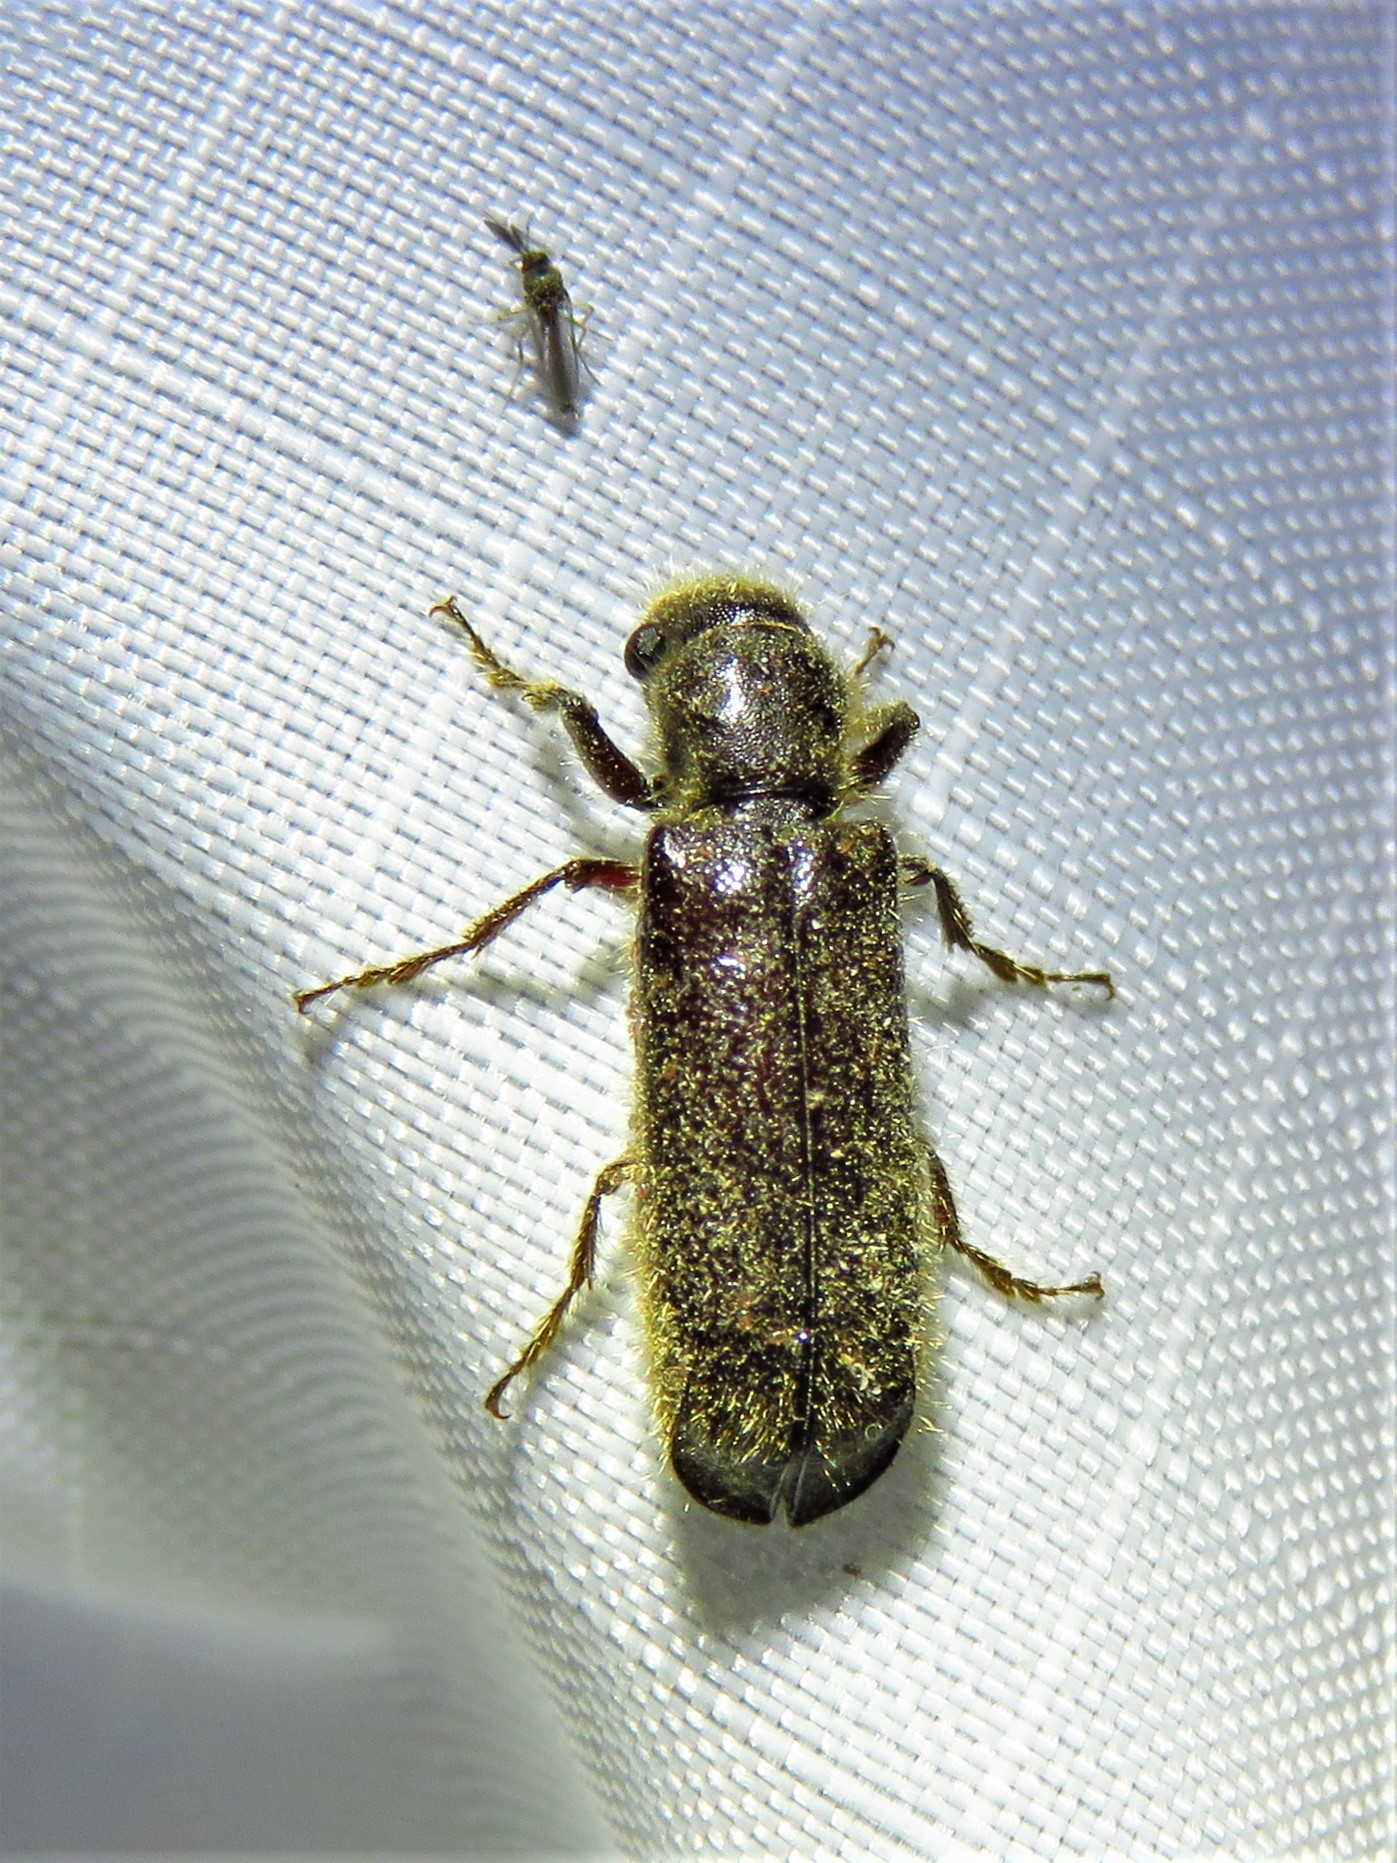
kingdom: Animalia
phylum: Arthropoda
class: Insecta
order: Coleoptera
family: Bostrichidae
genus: Melalgus
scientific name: Melalgus plicatus
